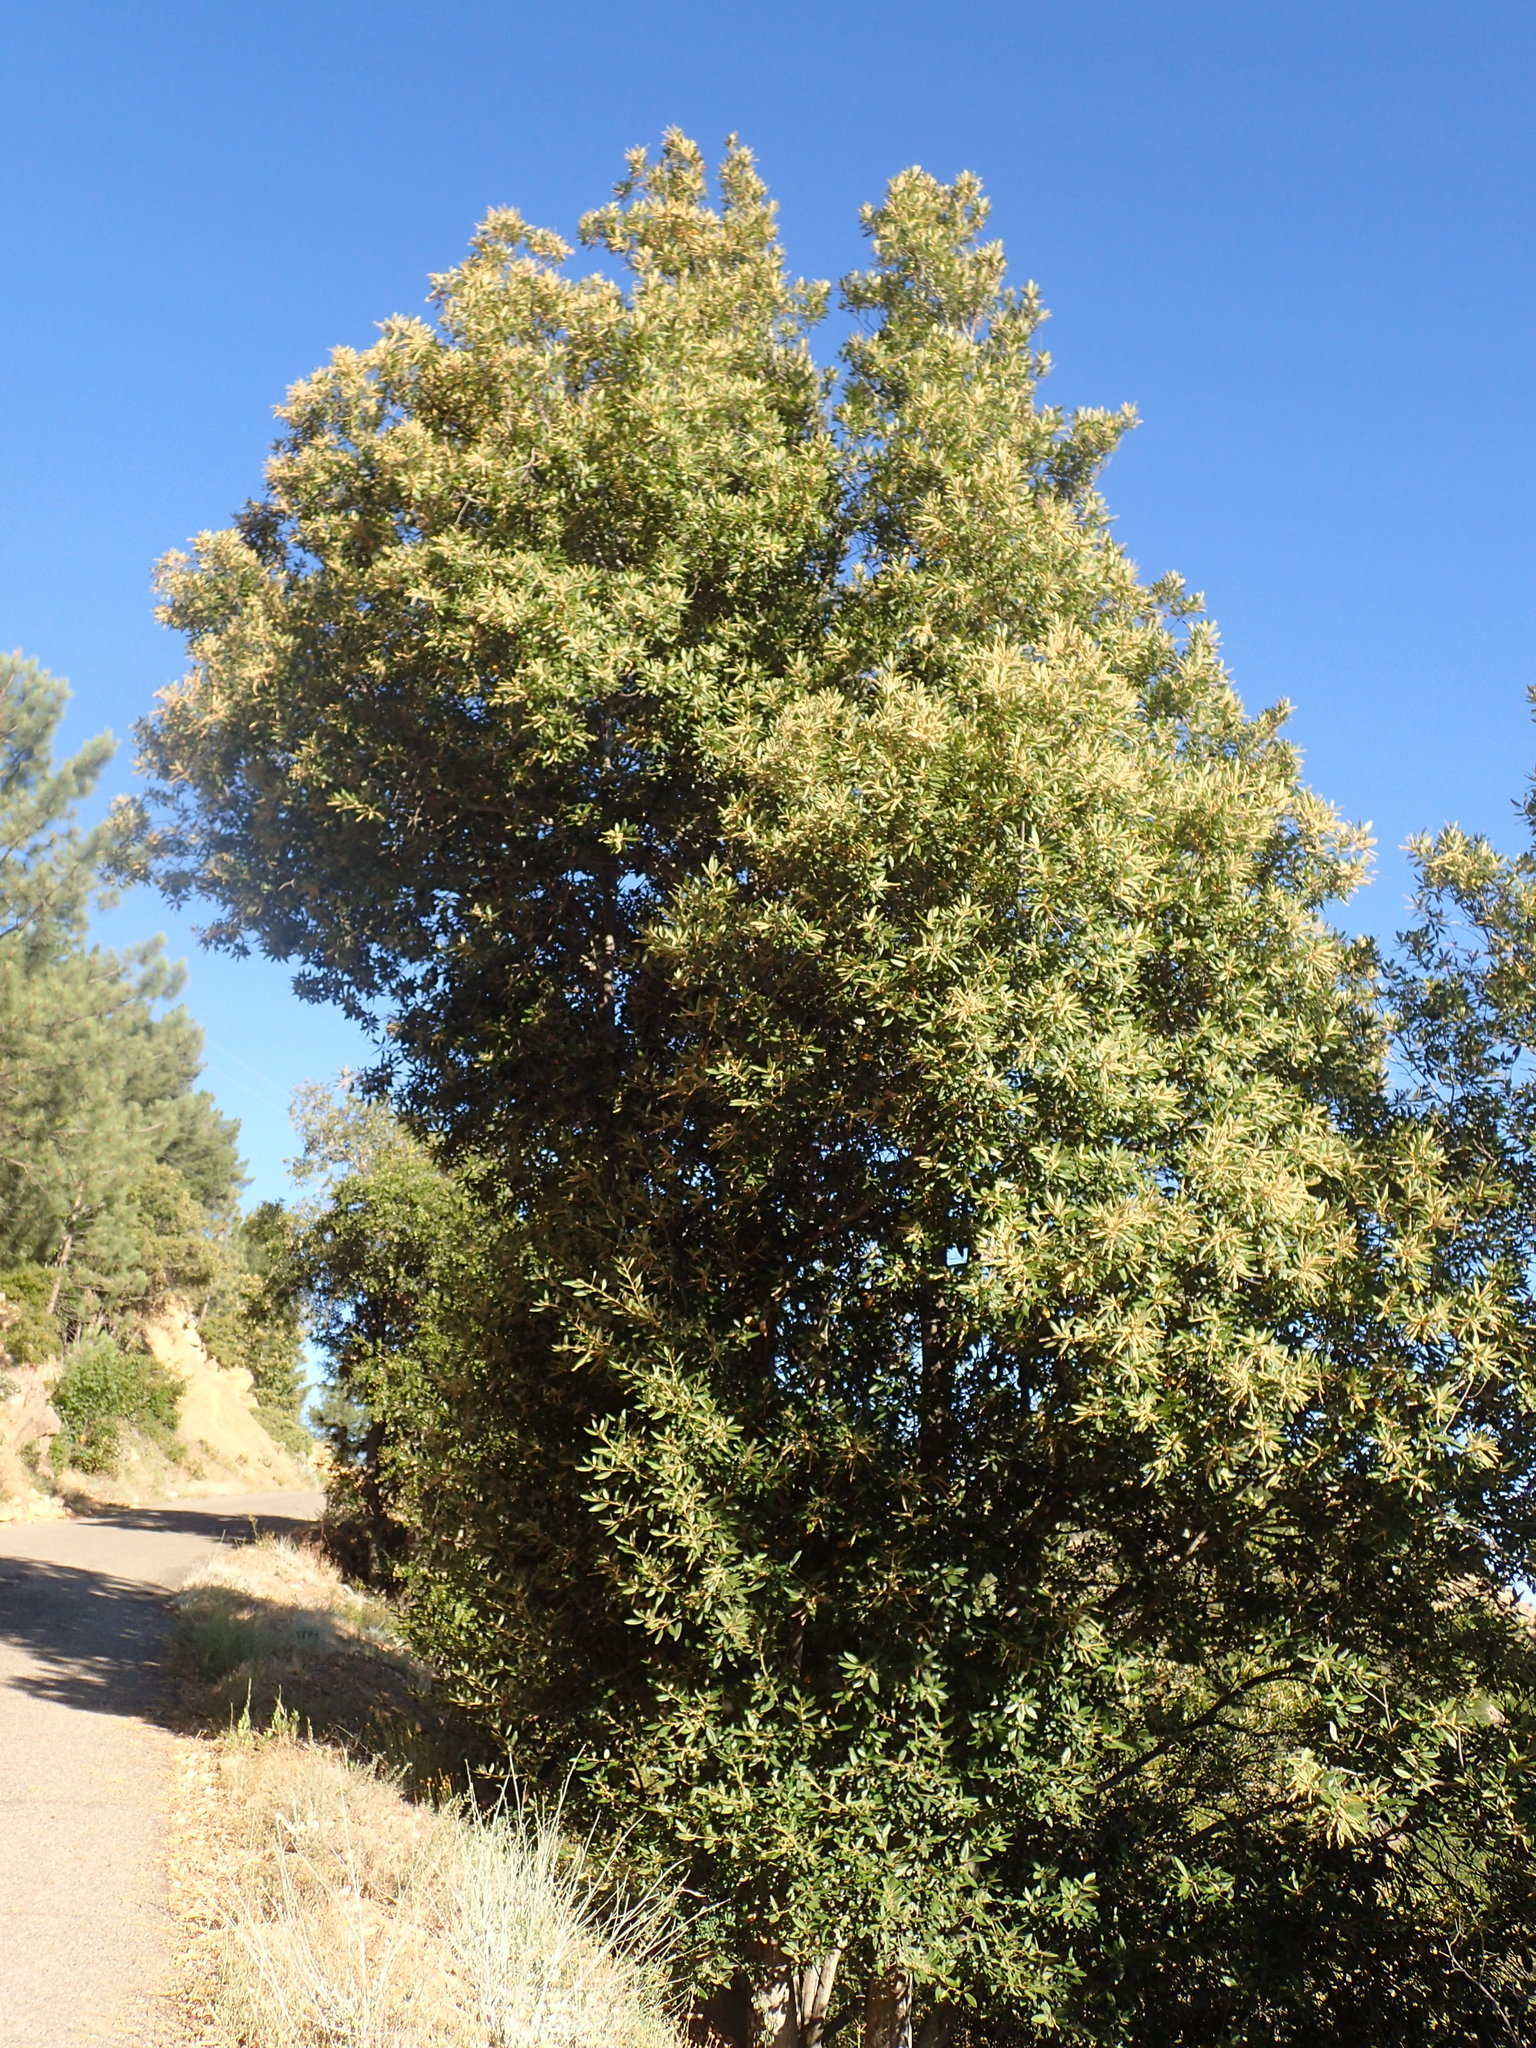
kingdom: Plantae
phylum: Tracheophyta
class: Magnoliopsida
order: Fagales
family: Fagaceae
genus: Notholithocarpus
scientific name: Notholithocarpus densiflorus
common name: Tan bark oak
